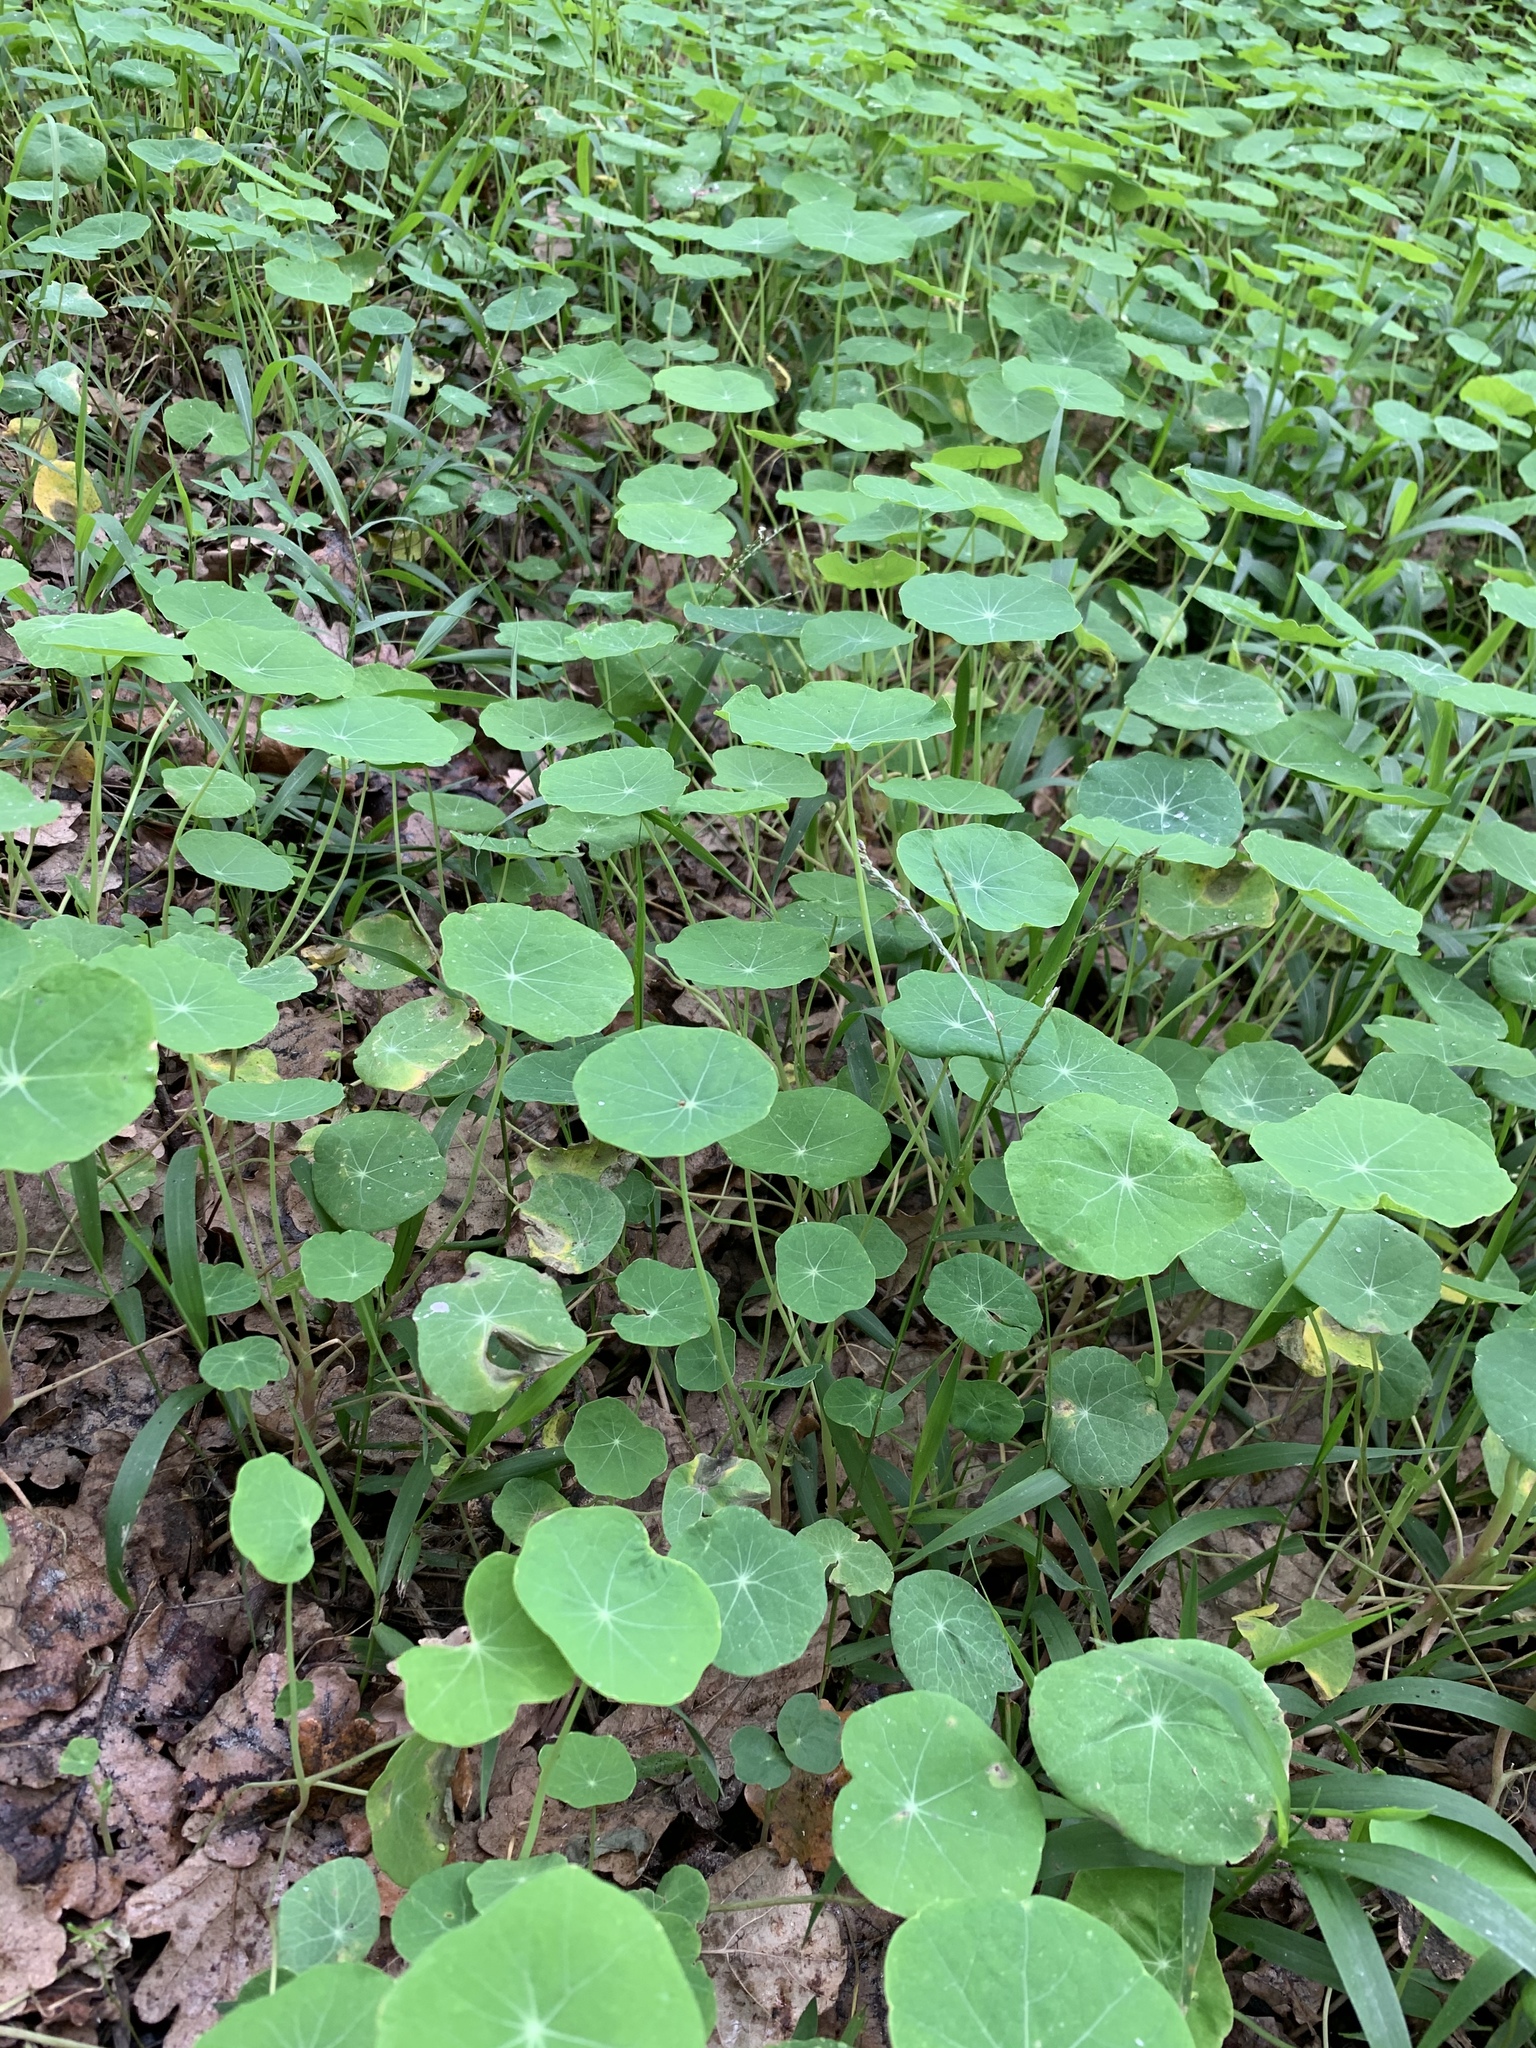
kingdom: Plantae
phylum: Tracheophyta
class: Magnoliopsida
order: Brassicales
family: Tropaeolaceae
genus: Tropaeolum
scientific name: Tropaeolum majus
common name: Nasturtium
